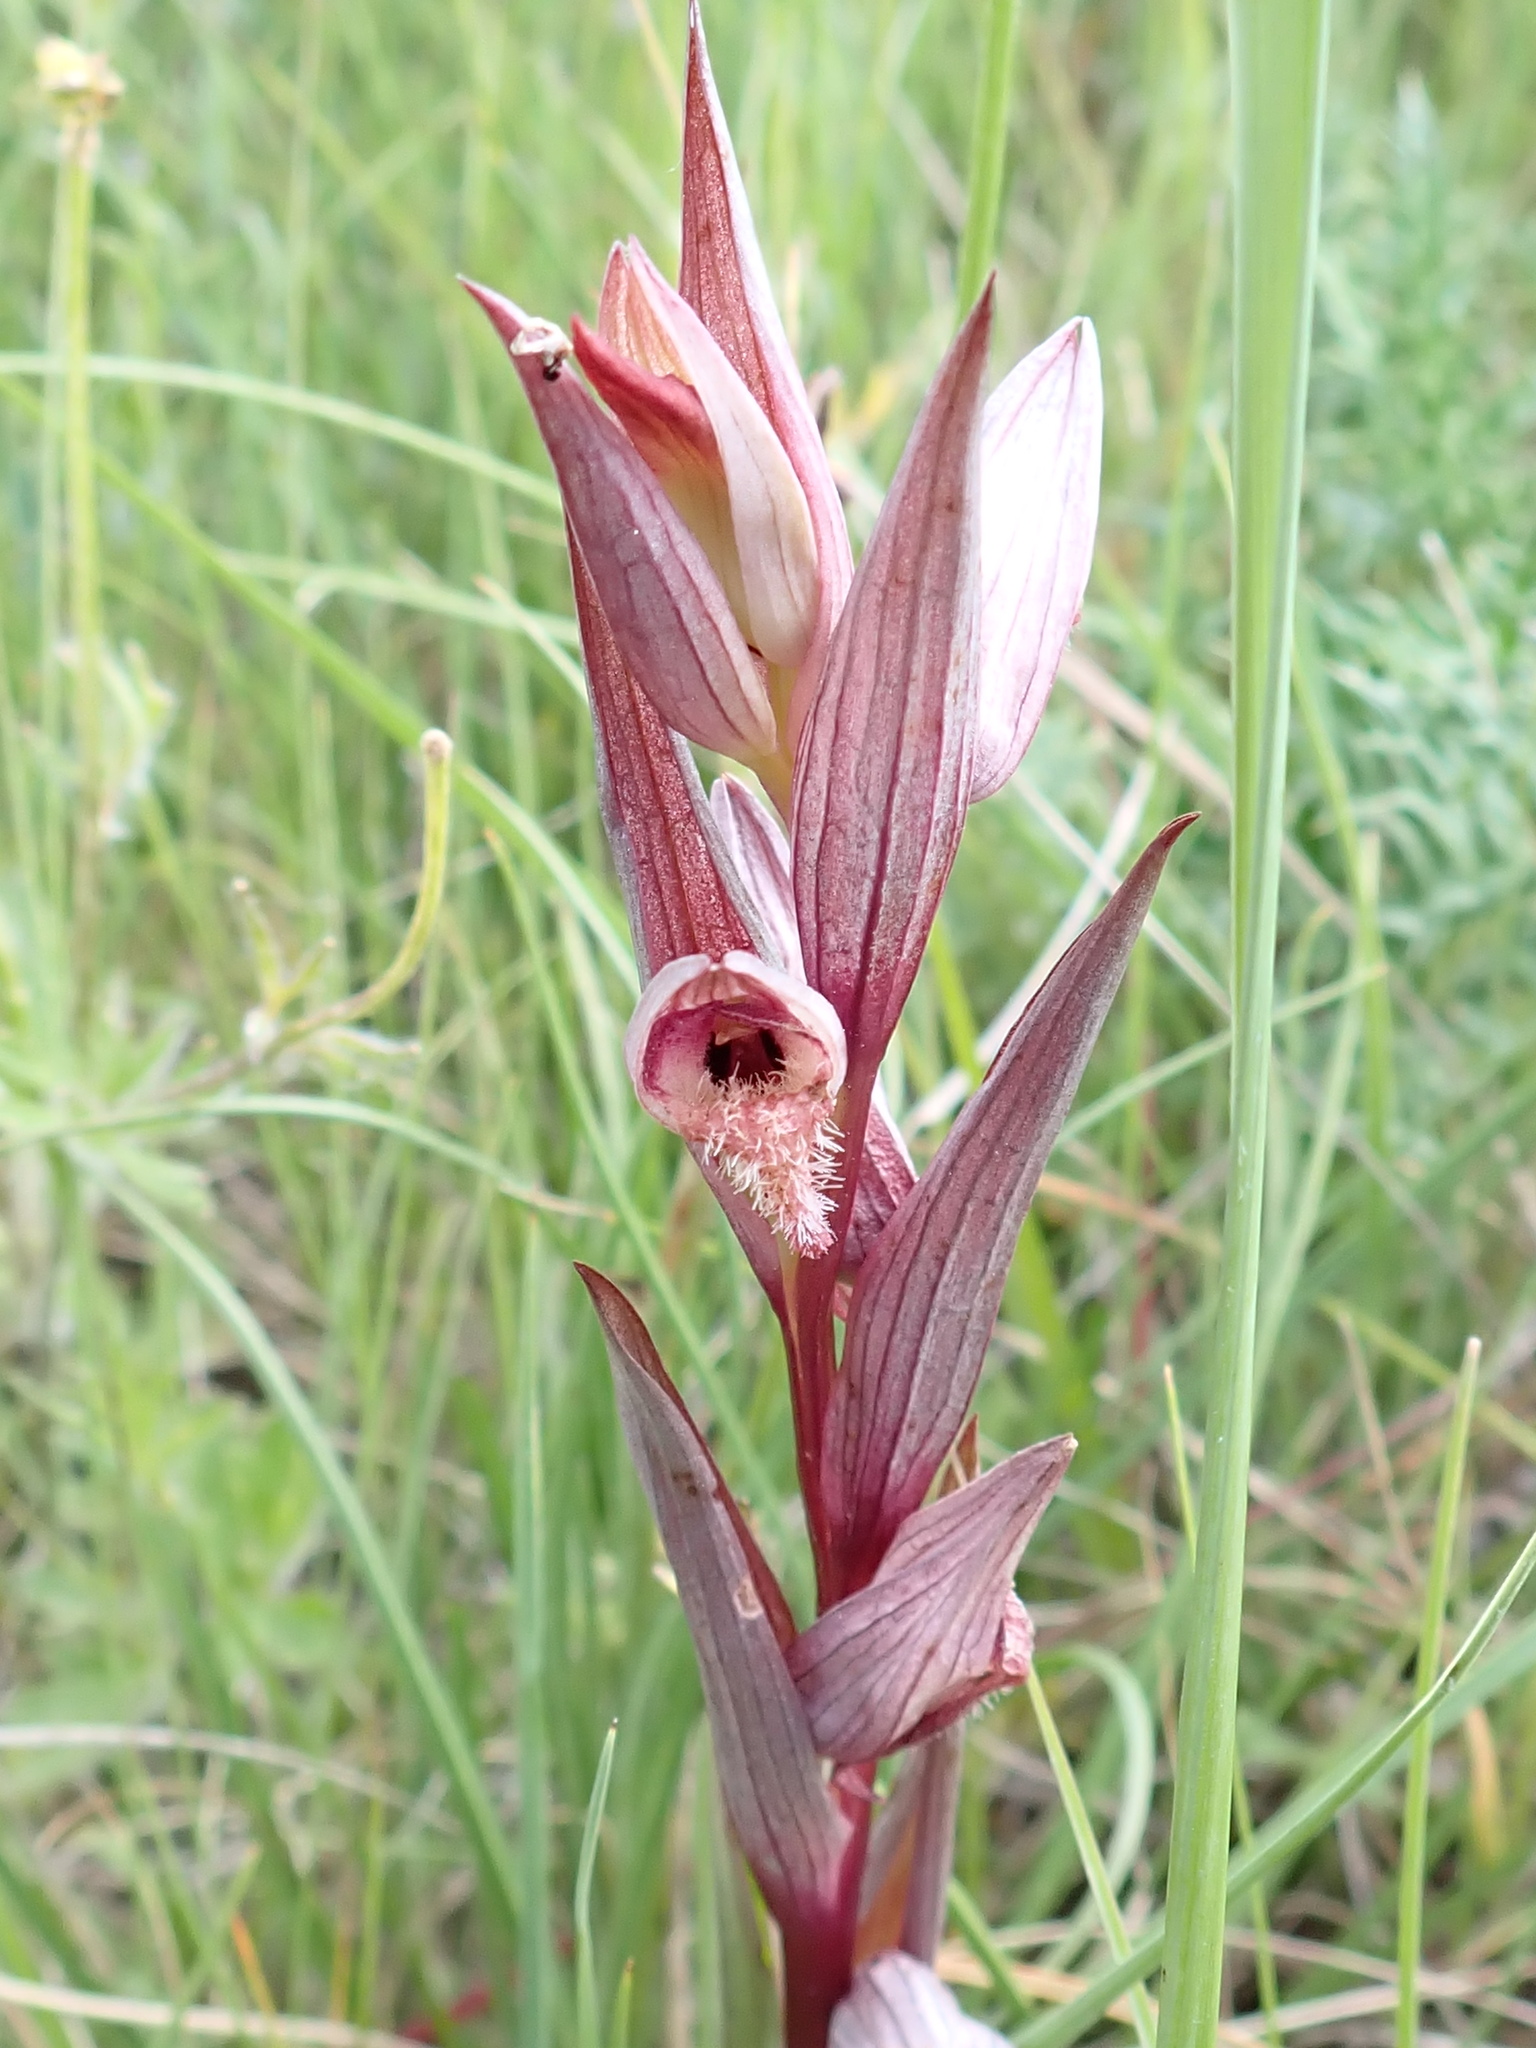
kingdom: Plantae
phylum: Tracheophyta
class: Liliopsida
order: Asparagales
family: Orchidaceae
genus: Serapias
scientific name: Serapias vomeracea
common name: Long-lipped tongue-orchid
